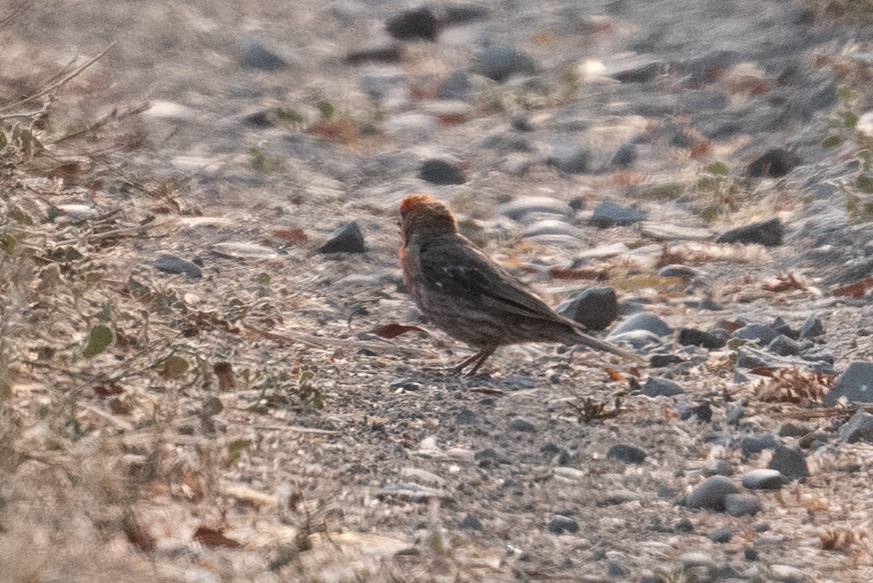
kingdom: Animalia
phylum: Chordata
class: Aves
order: Passeriformes
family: Fringillidae
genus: Haemorhous
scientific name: Haemorhous mexicanus
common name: House finch
